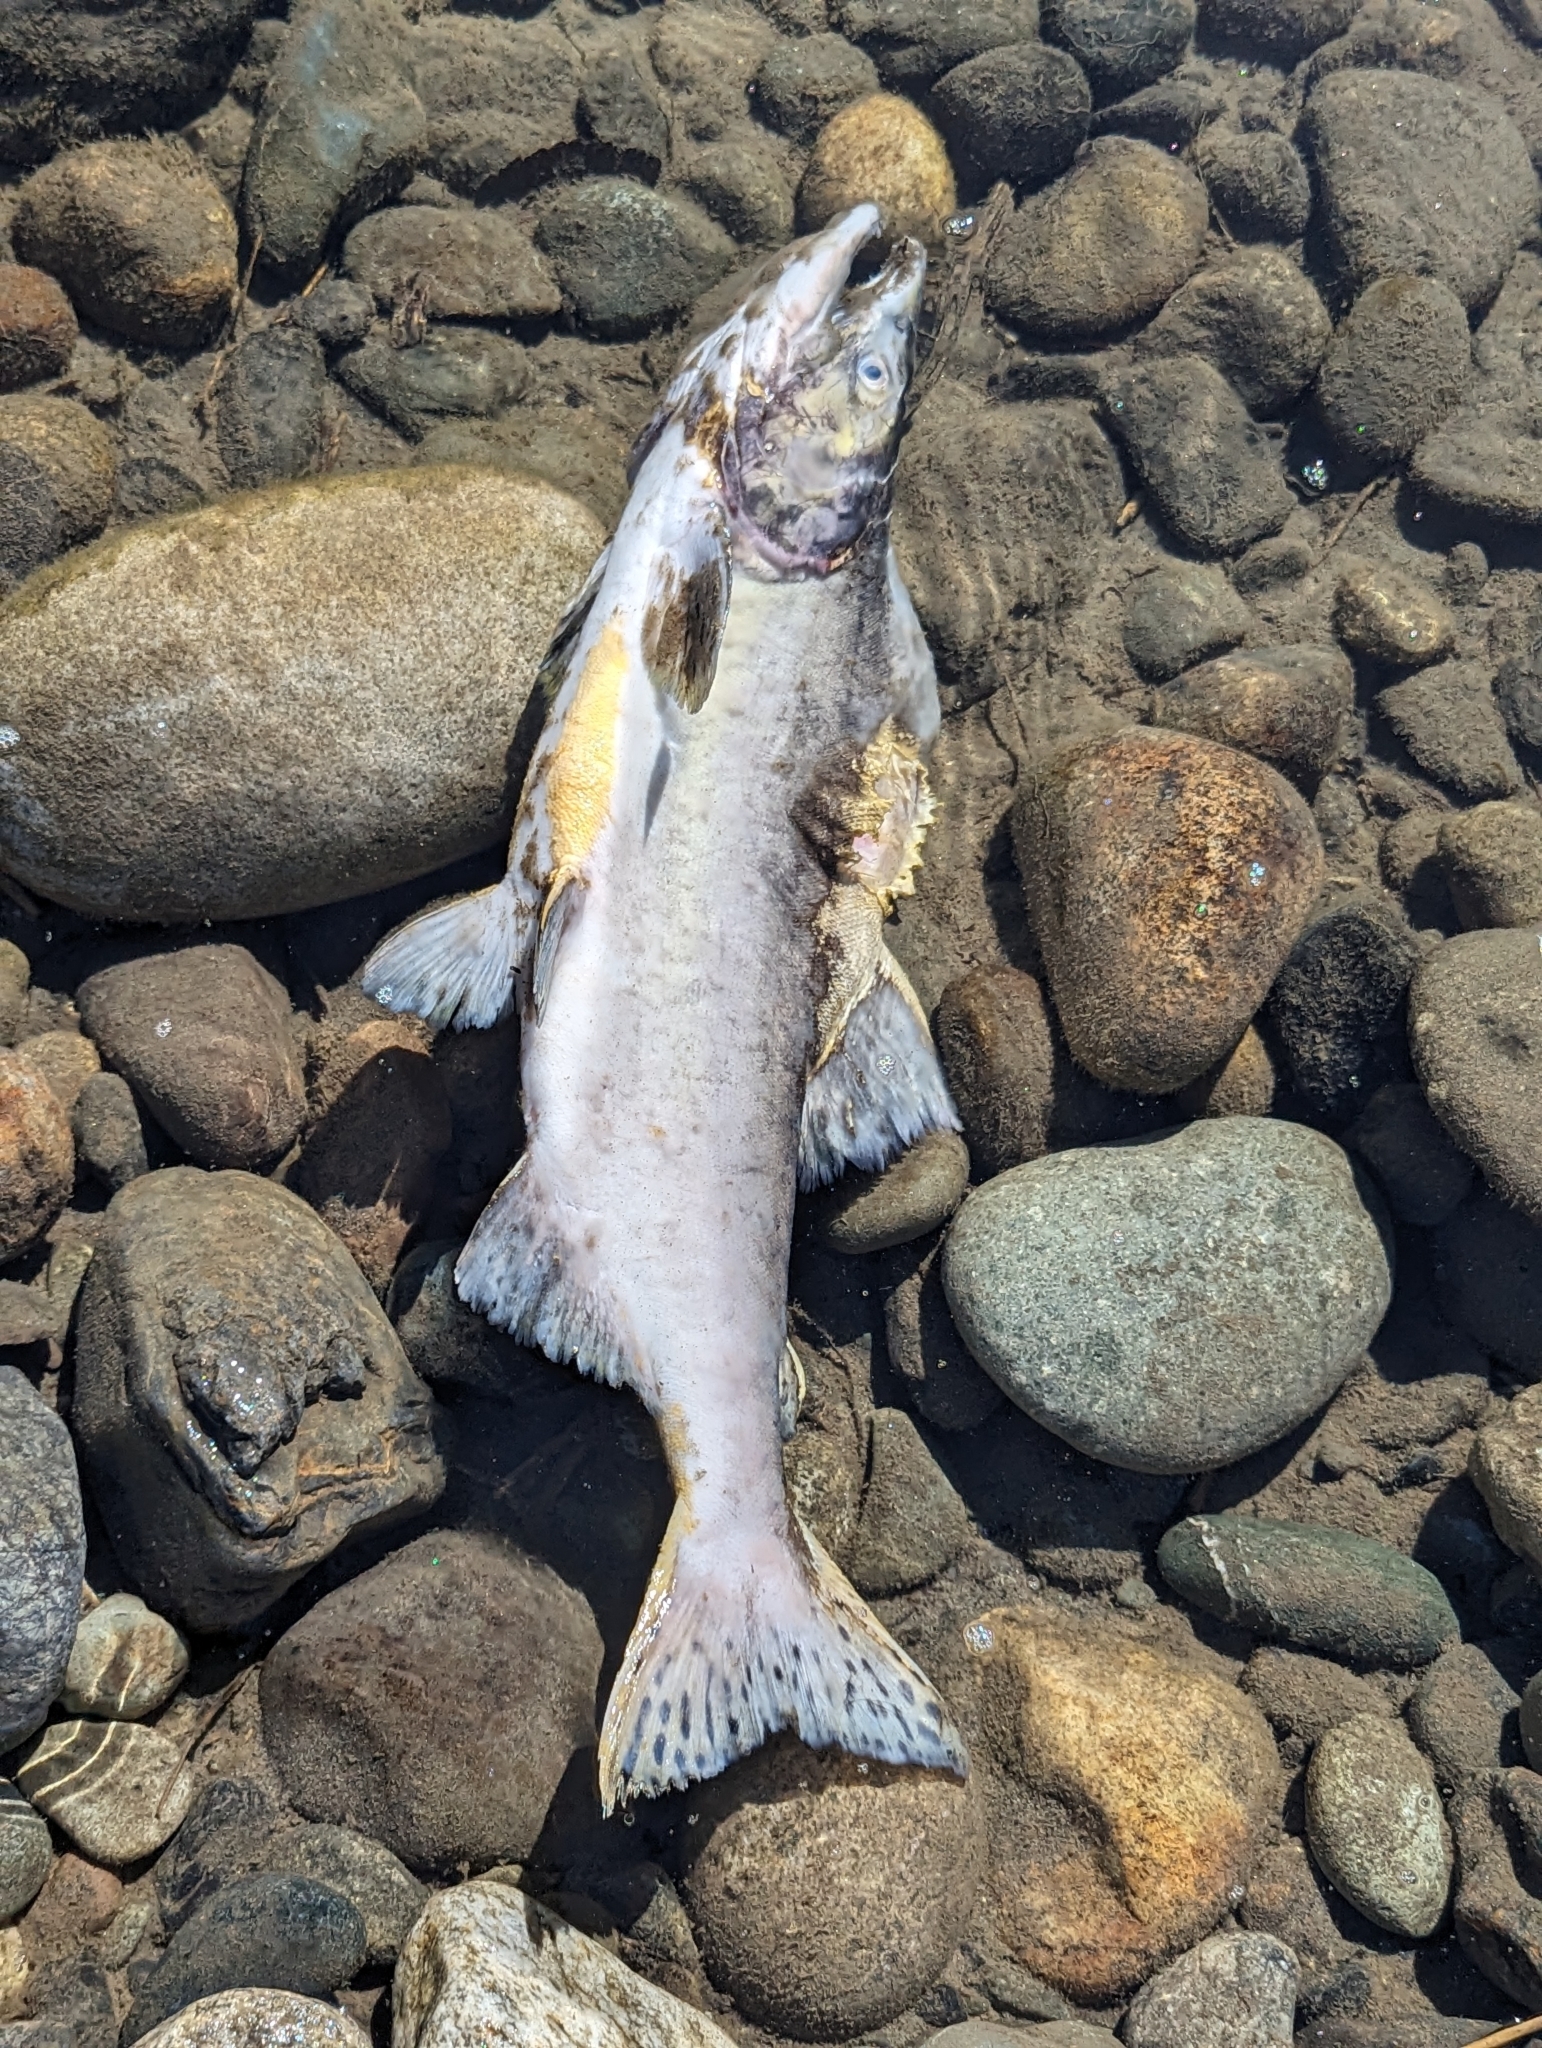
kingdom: Animalia
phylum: Chordata
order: Salmoniformes
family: Salmonidae
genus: Oncorhynchus
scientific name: Oncorhynchus gorbuscha
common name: Humpback salmon
